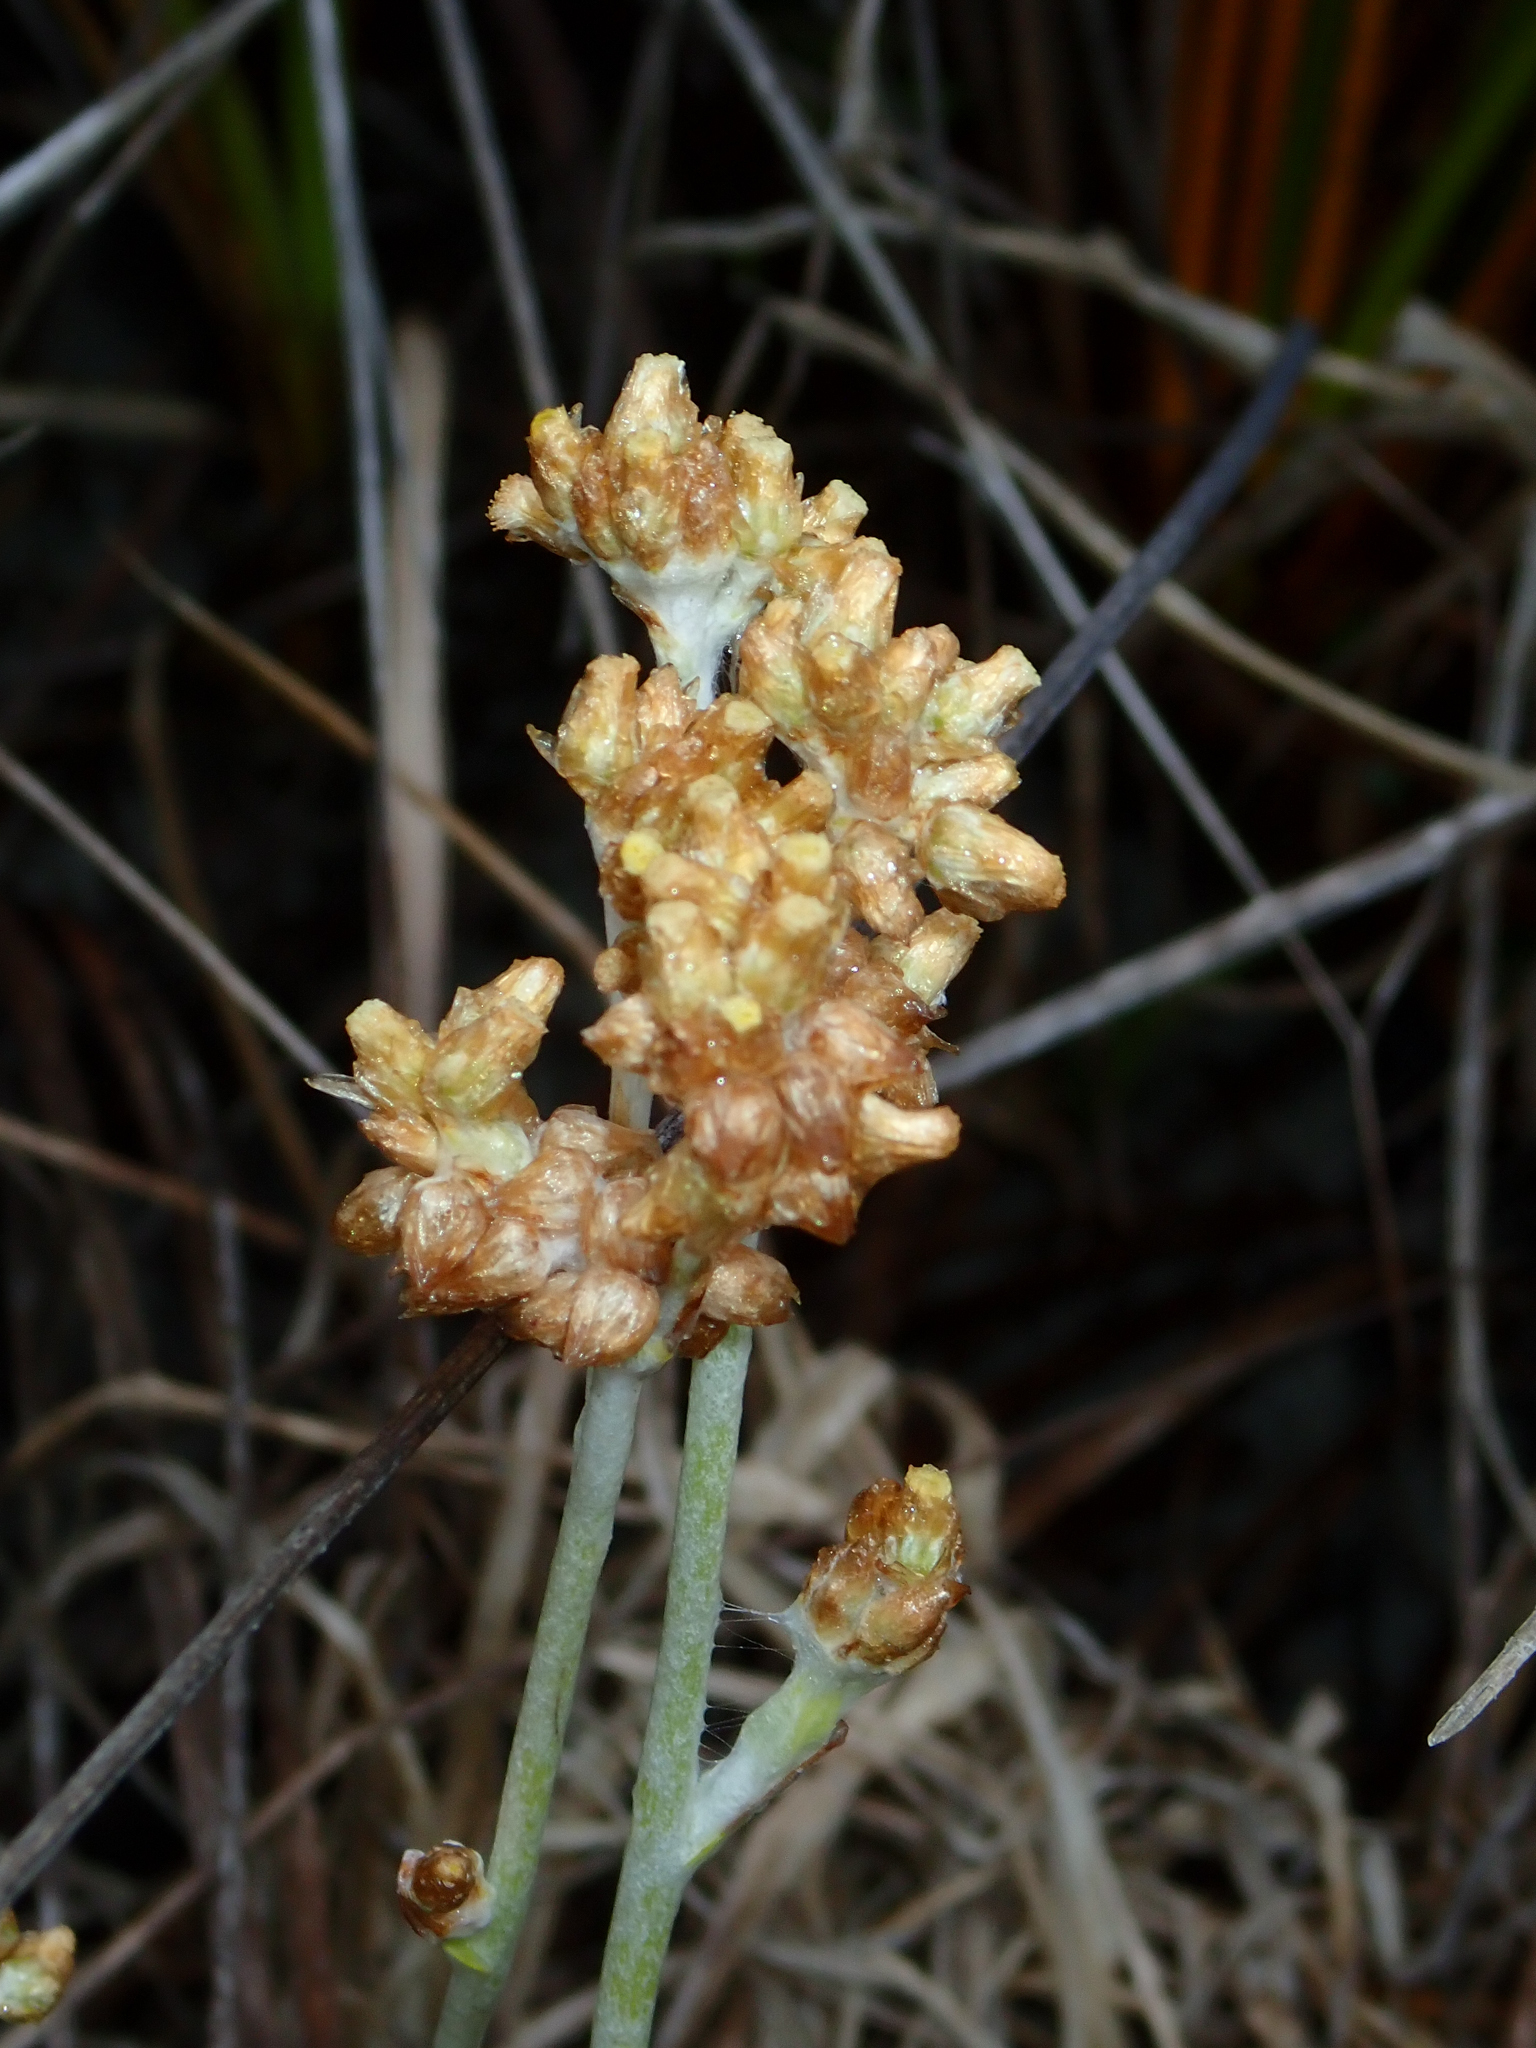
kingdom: Plantae
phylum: Tracheophyta
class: Magnoliopsida
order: Asterales
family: Asteraceae
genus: Helichrysum
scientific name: Helichrysum luteoalbum
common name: Daisy
